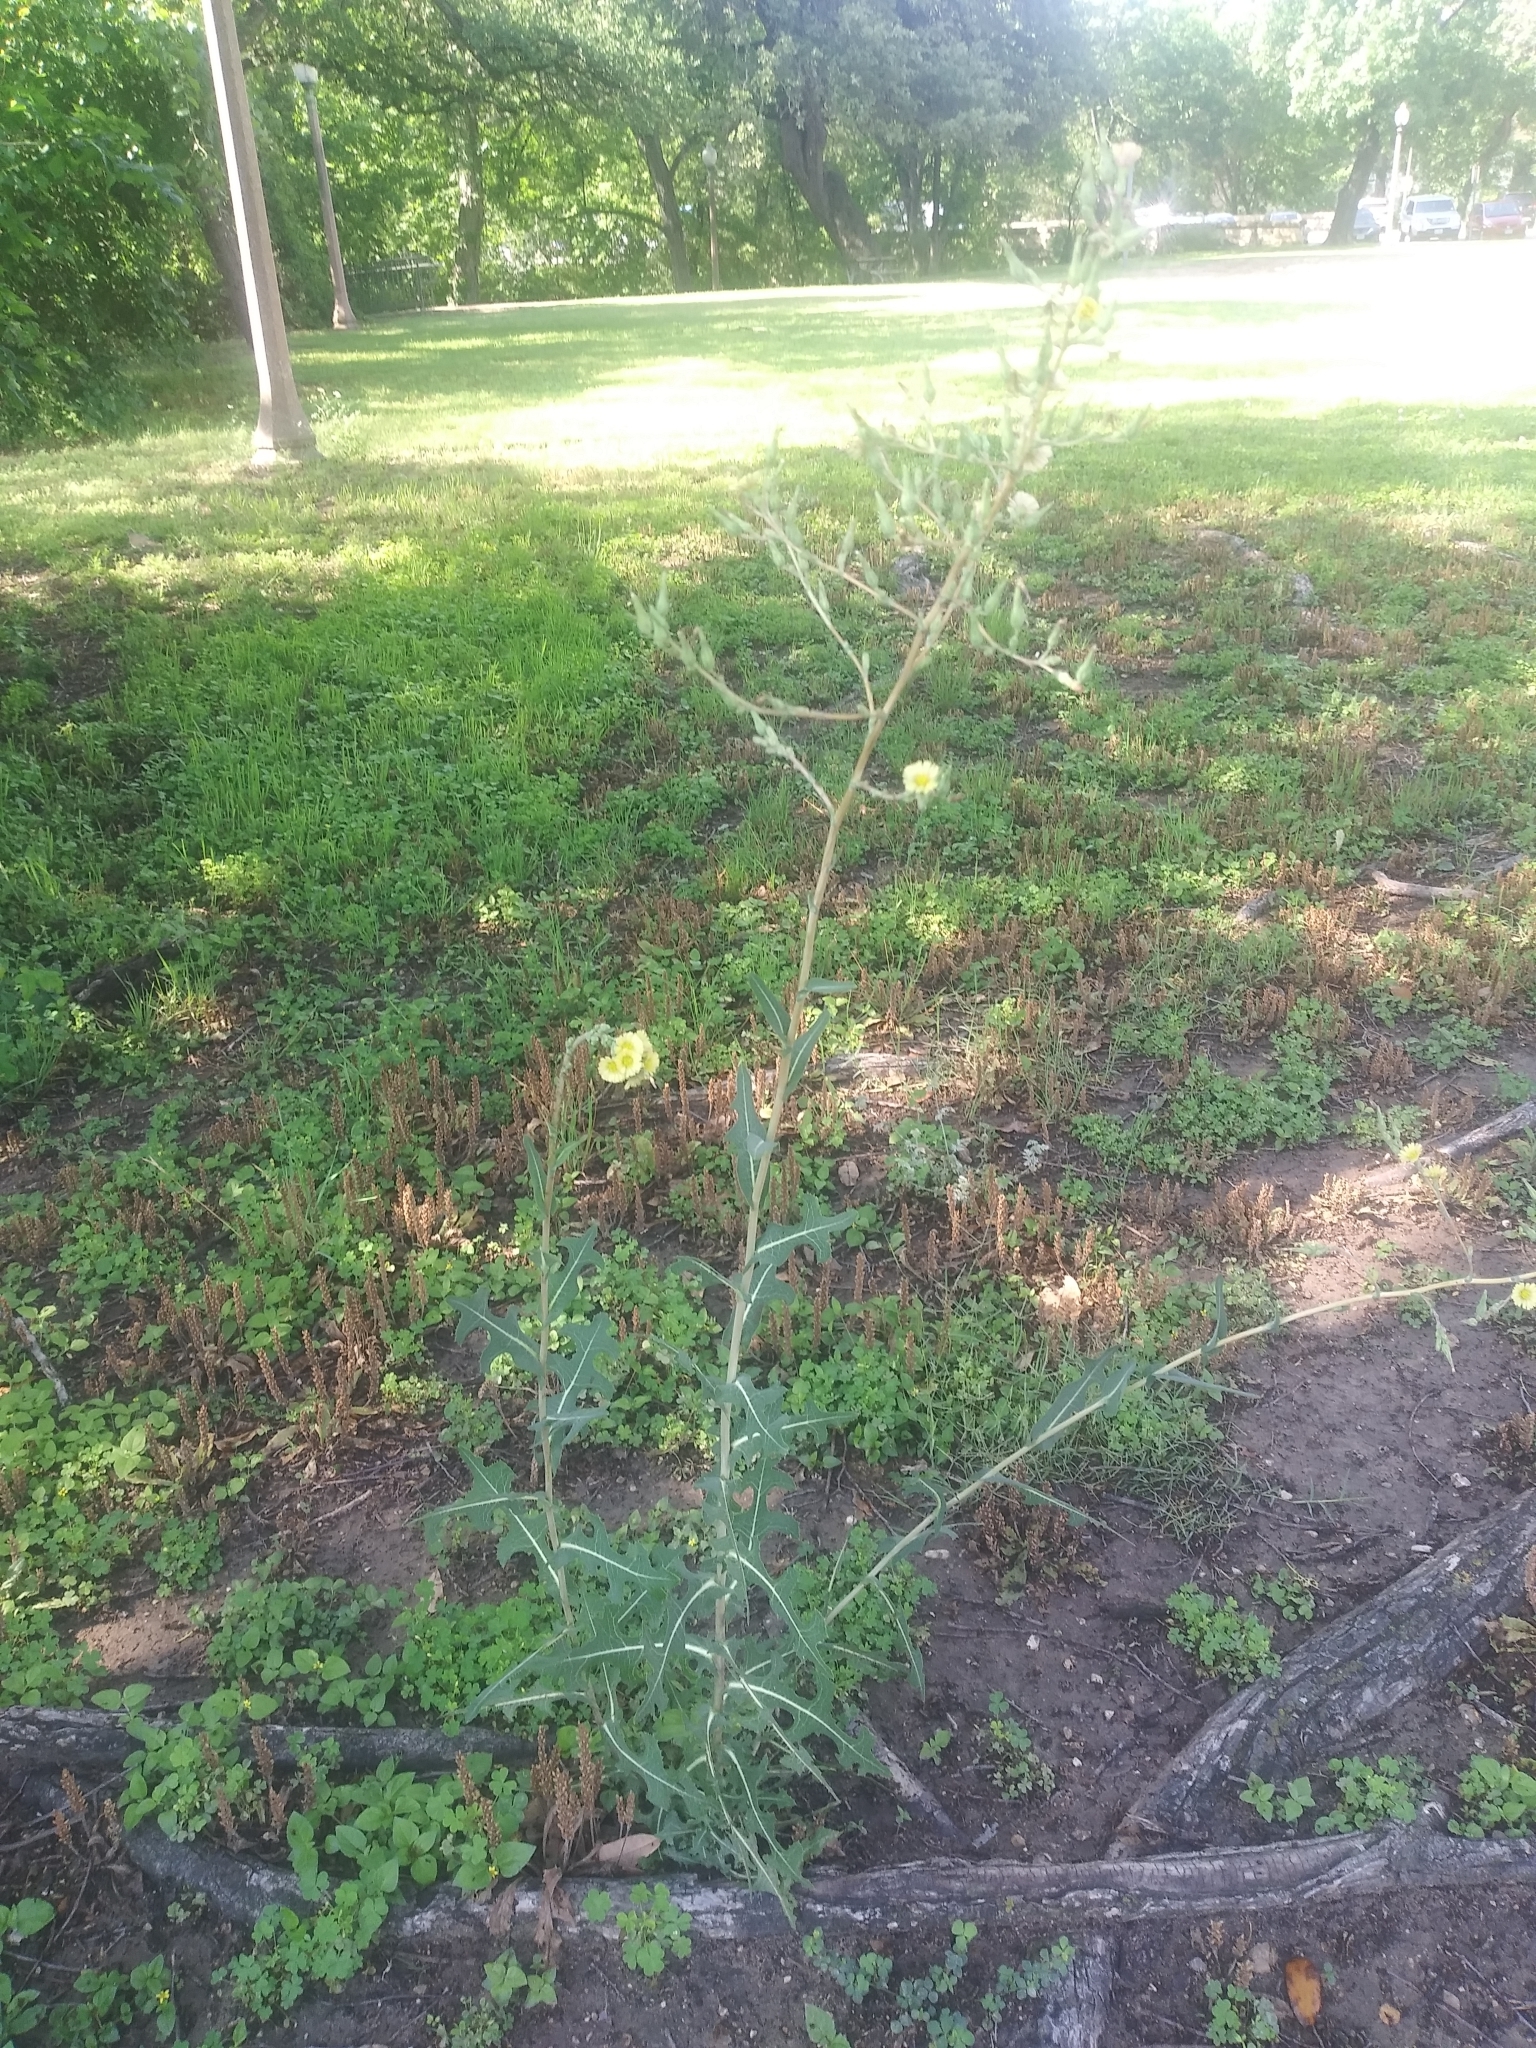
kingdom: Plantae
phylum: Tracheophyta
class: Magnoliopsida
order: Asterales
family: Asteraceae
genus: Lactuca
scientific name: Lactuca serriola
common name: Prickly lettuce
